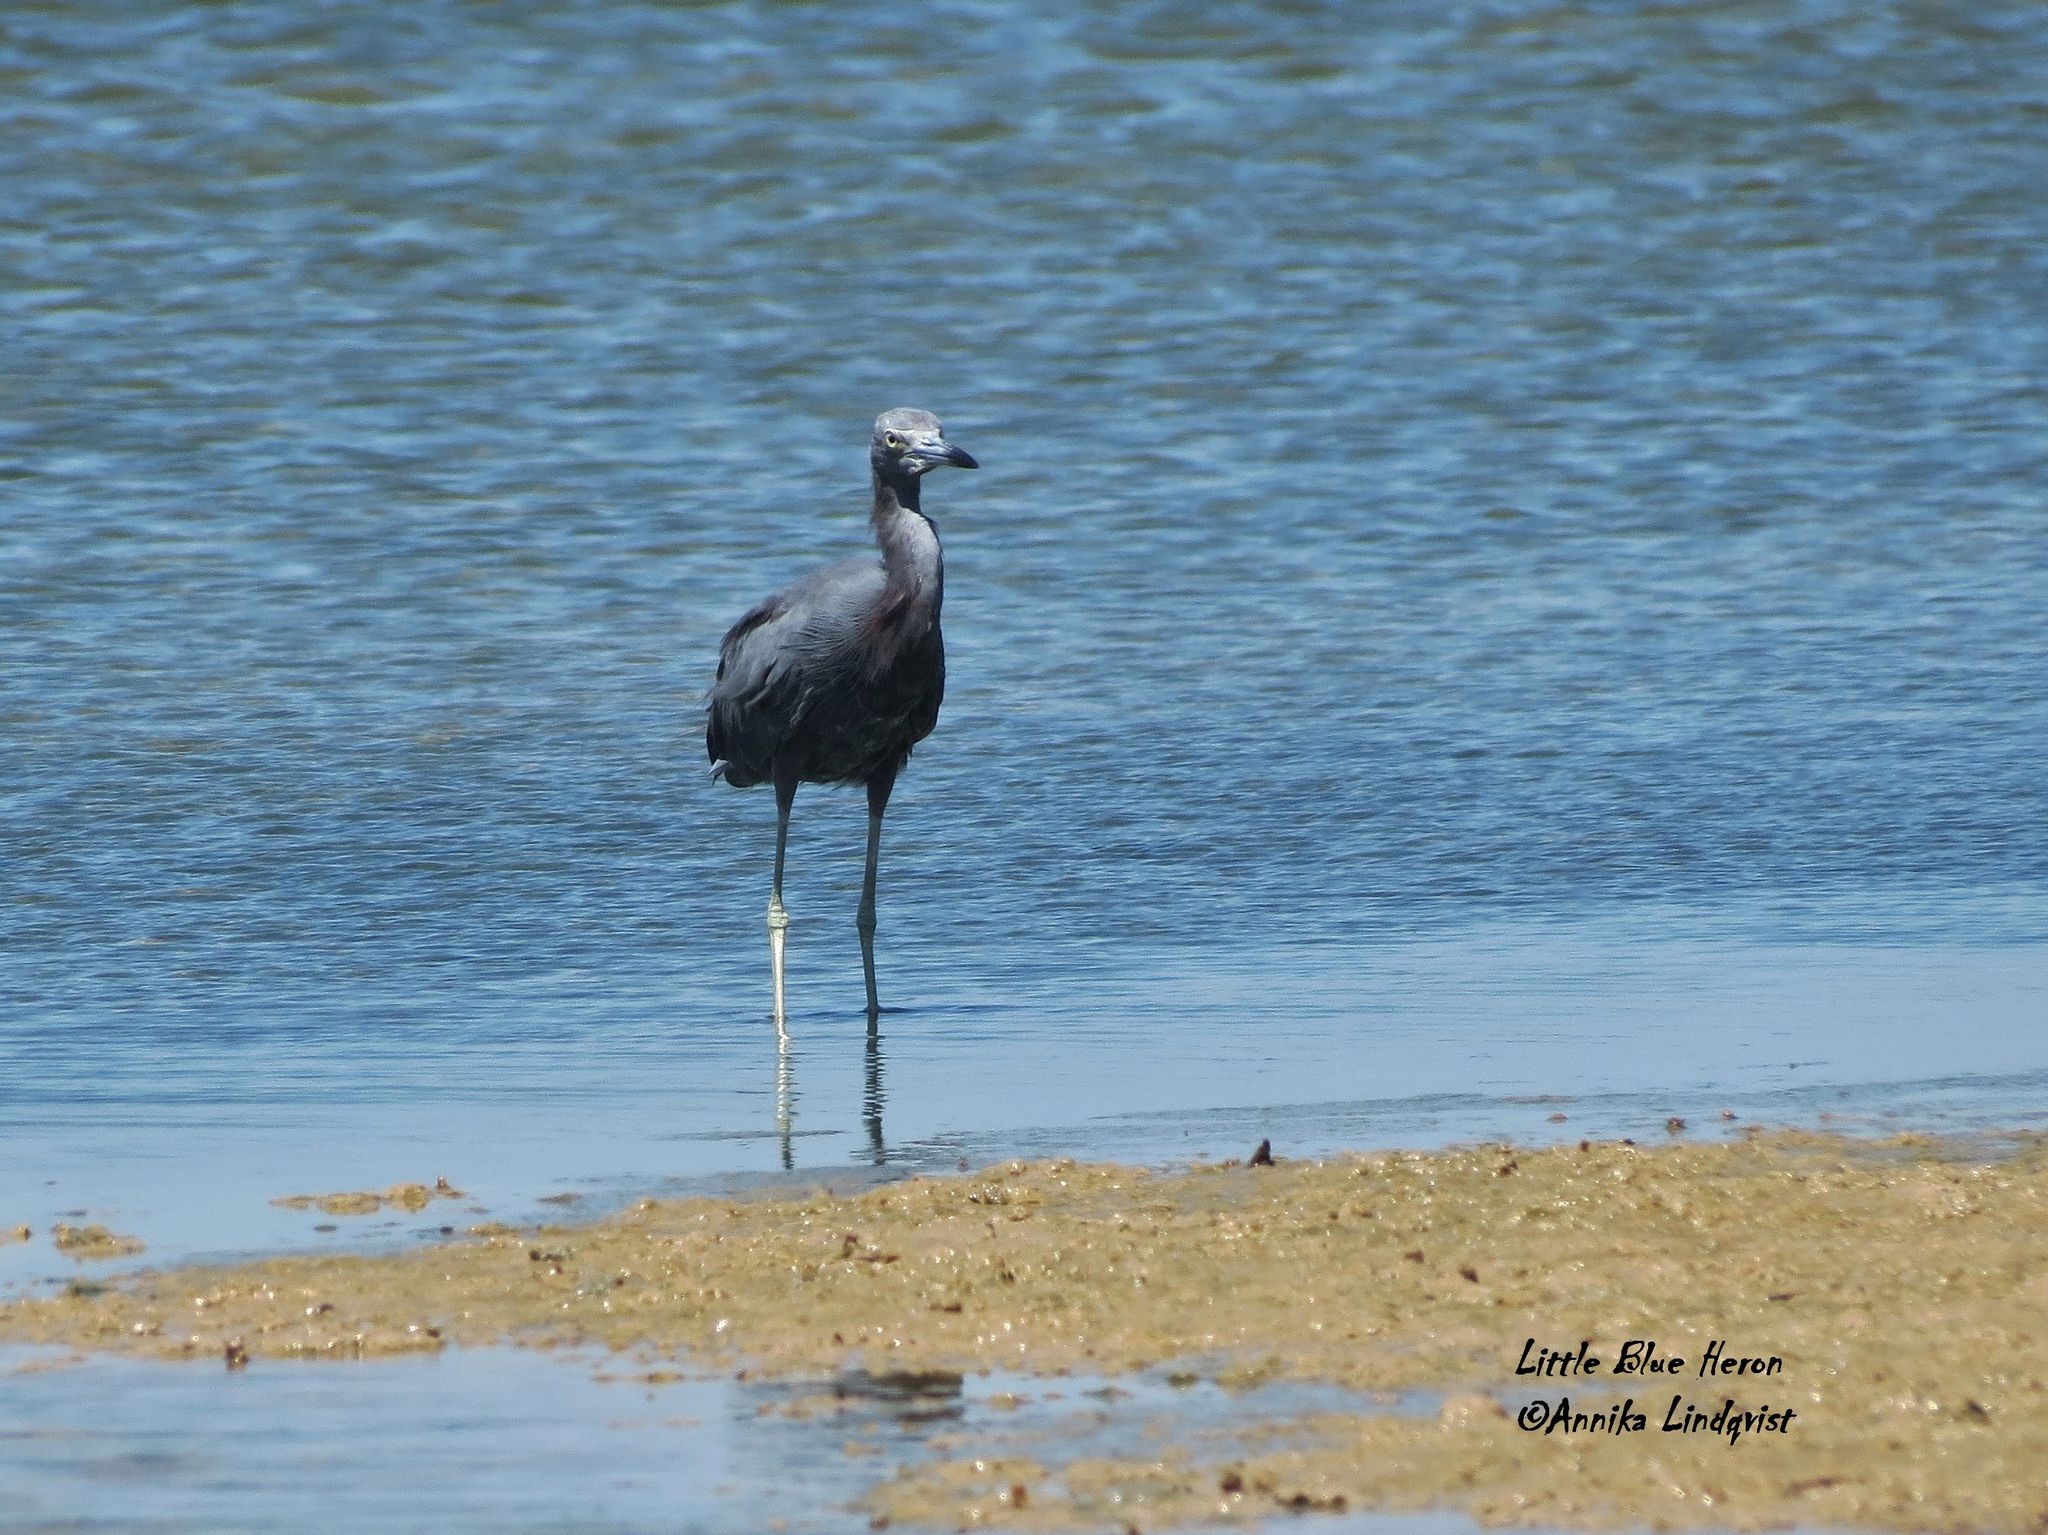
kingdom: Animalia
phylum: Chordata
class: Aves
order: Pelecaniformes
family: Ardeidae
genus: Egretta
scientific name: Egretta caerulea
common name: Little blue heron
